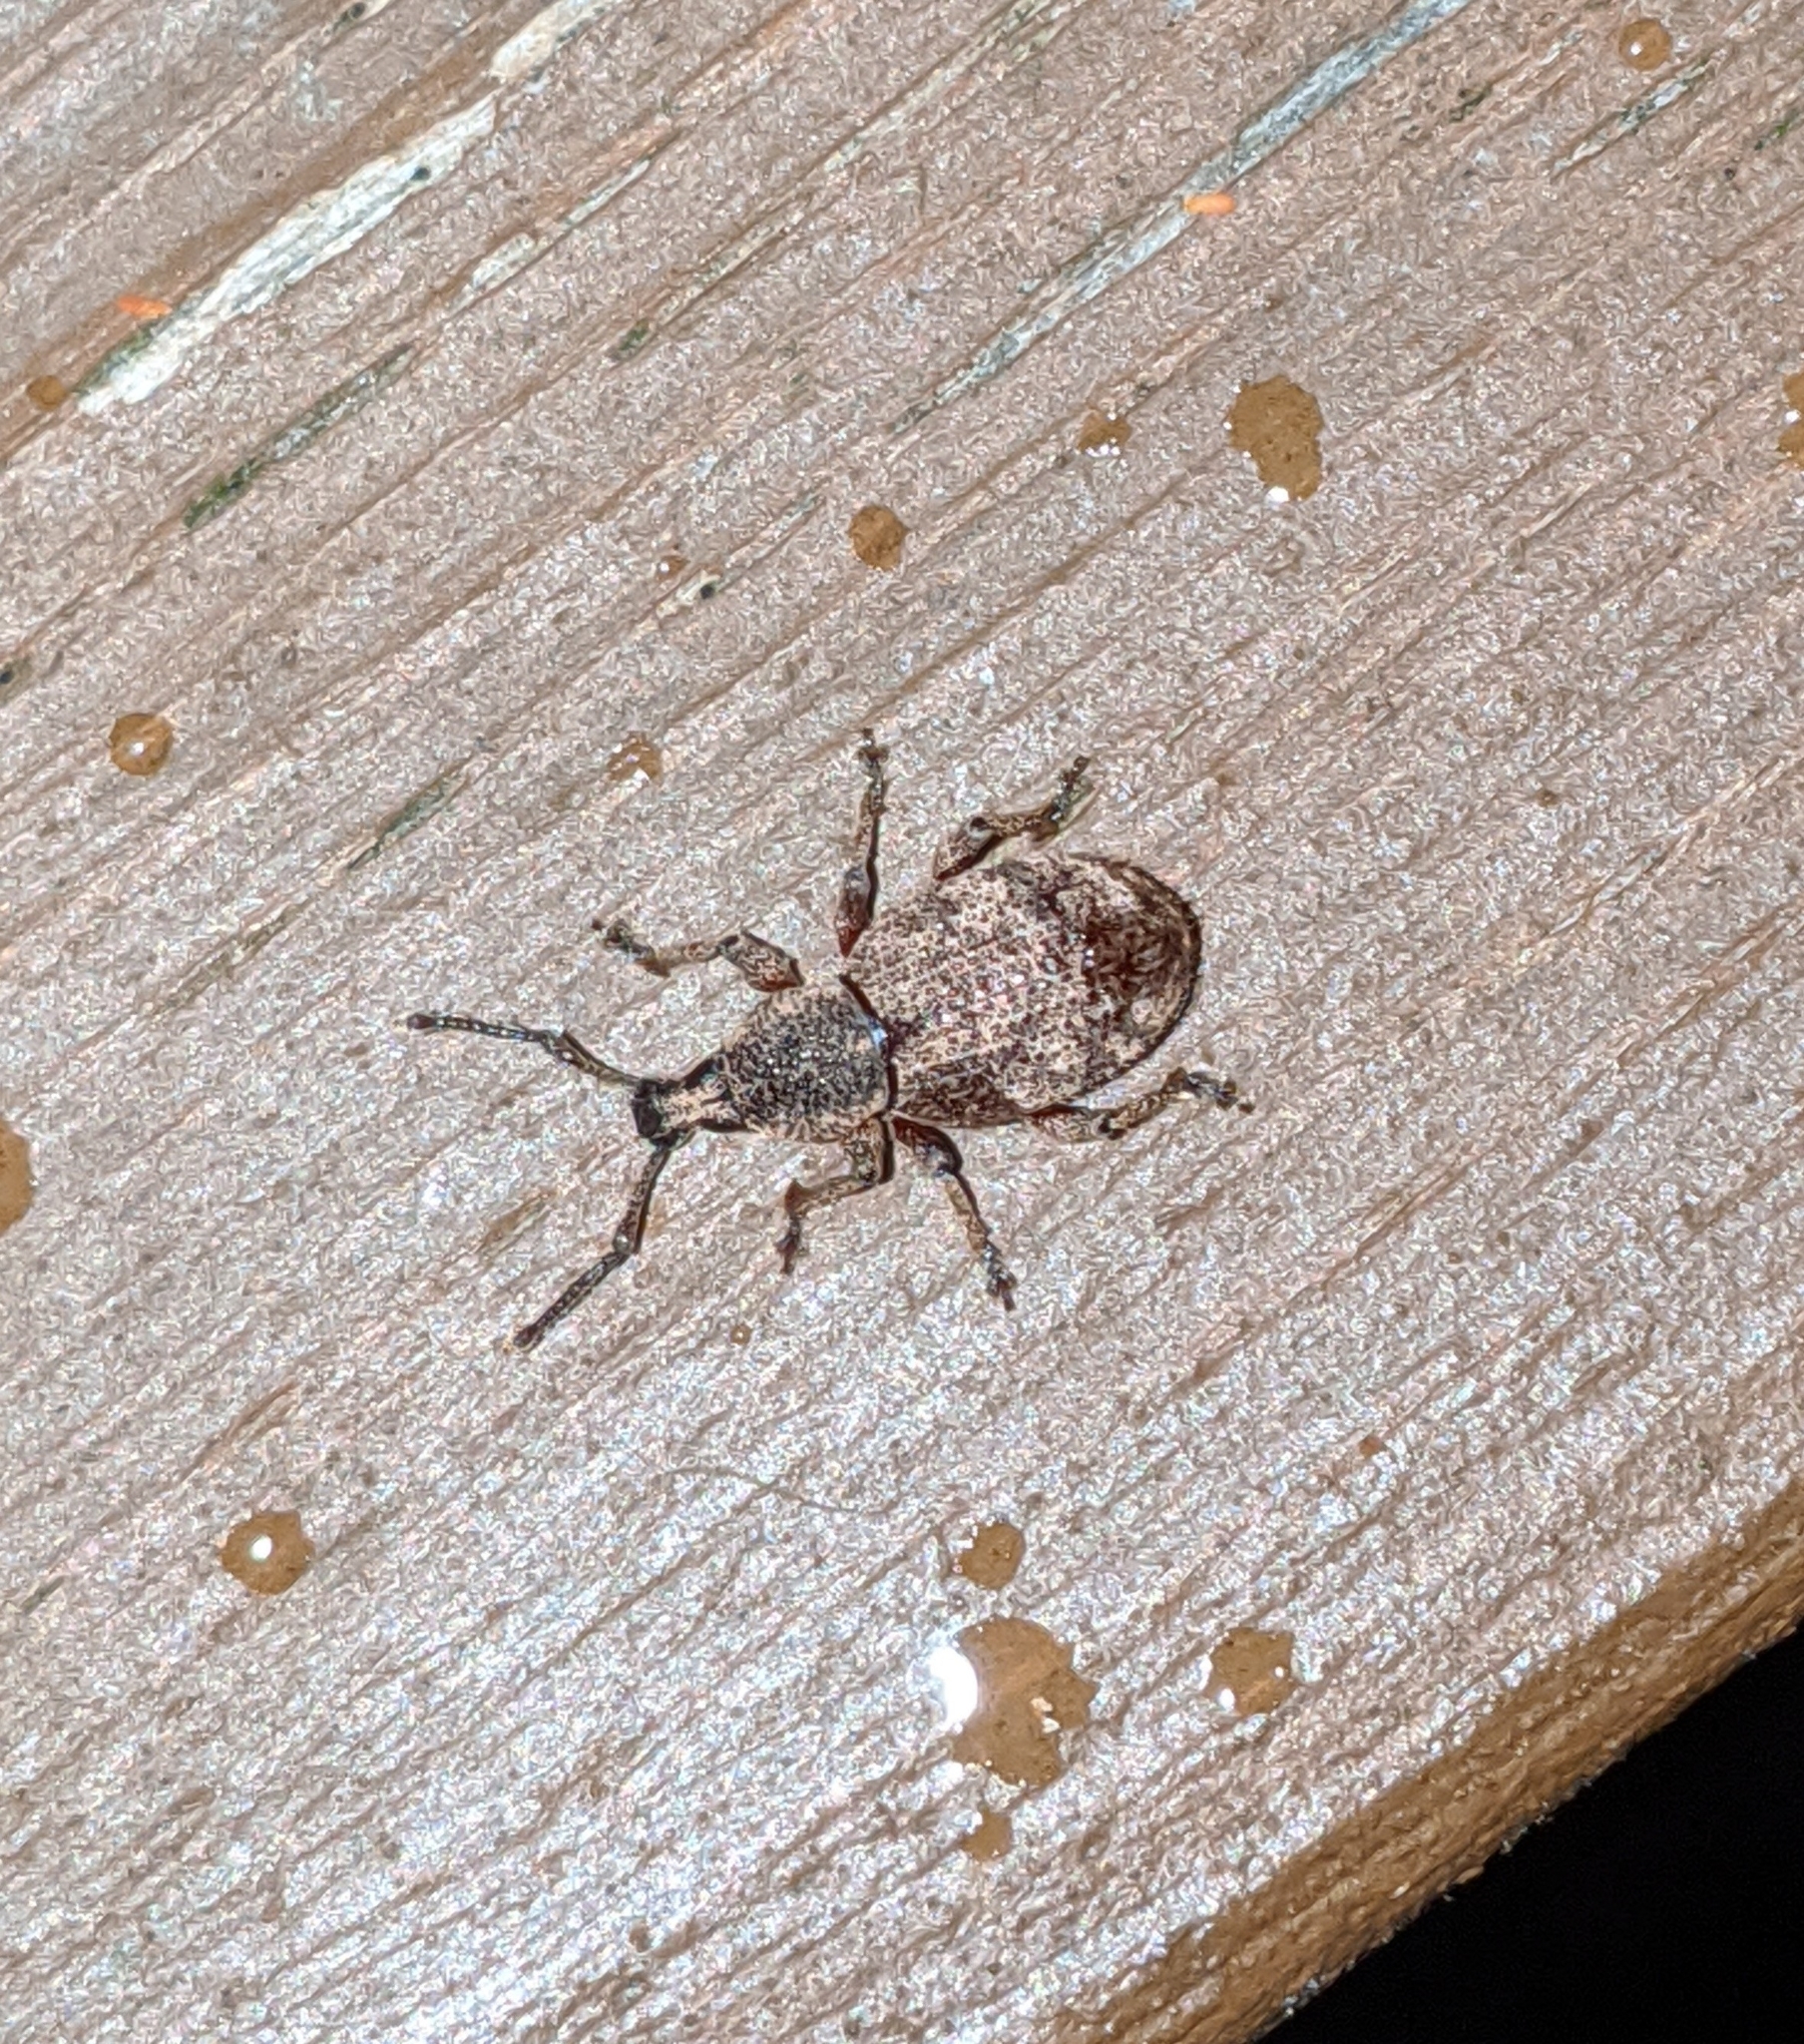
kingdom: Animalia
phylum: Arthropoda
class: Insecta
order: Coleoptera
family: Curculionidae
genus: Otiorhynchus
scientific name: Otiorhynchus singularis
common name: Clay-coloured weevil
